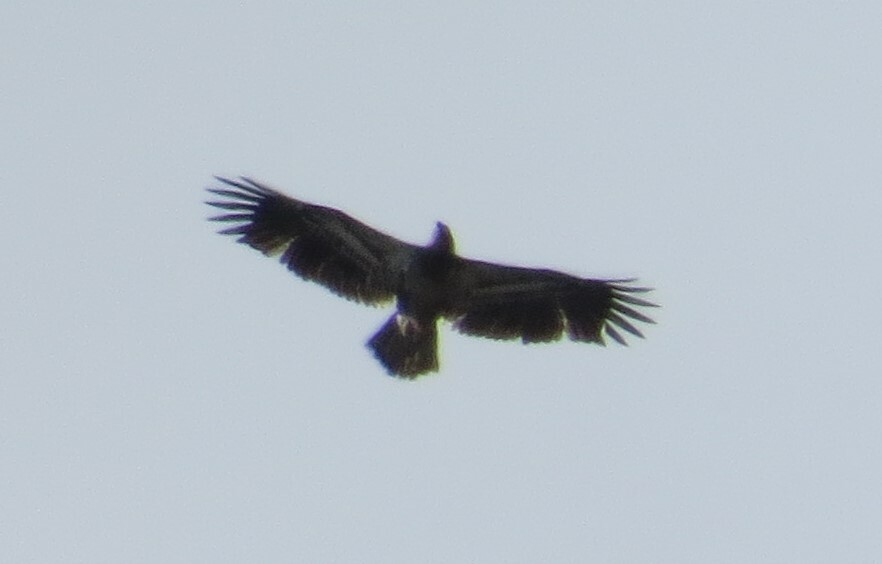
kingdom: Animalia
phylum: Chordata
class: Aves
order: Accipitriformes
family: Accipitridae
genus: Haliaeetus
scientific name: Haliaeetus leucocephalus
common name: Bald eagle
